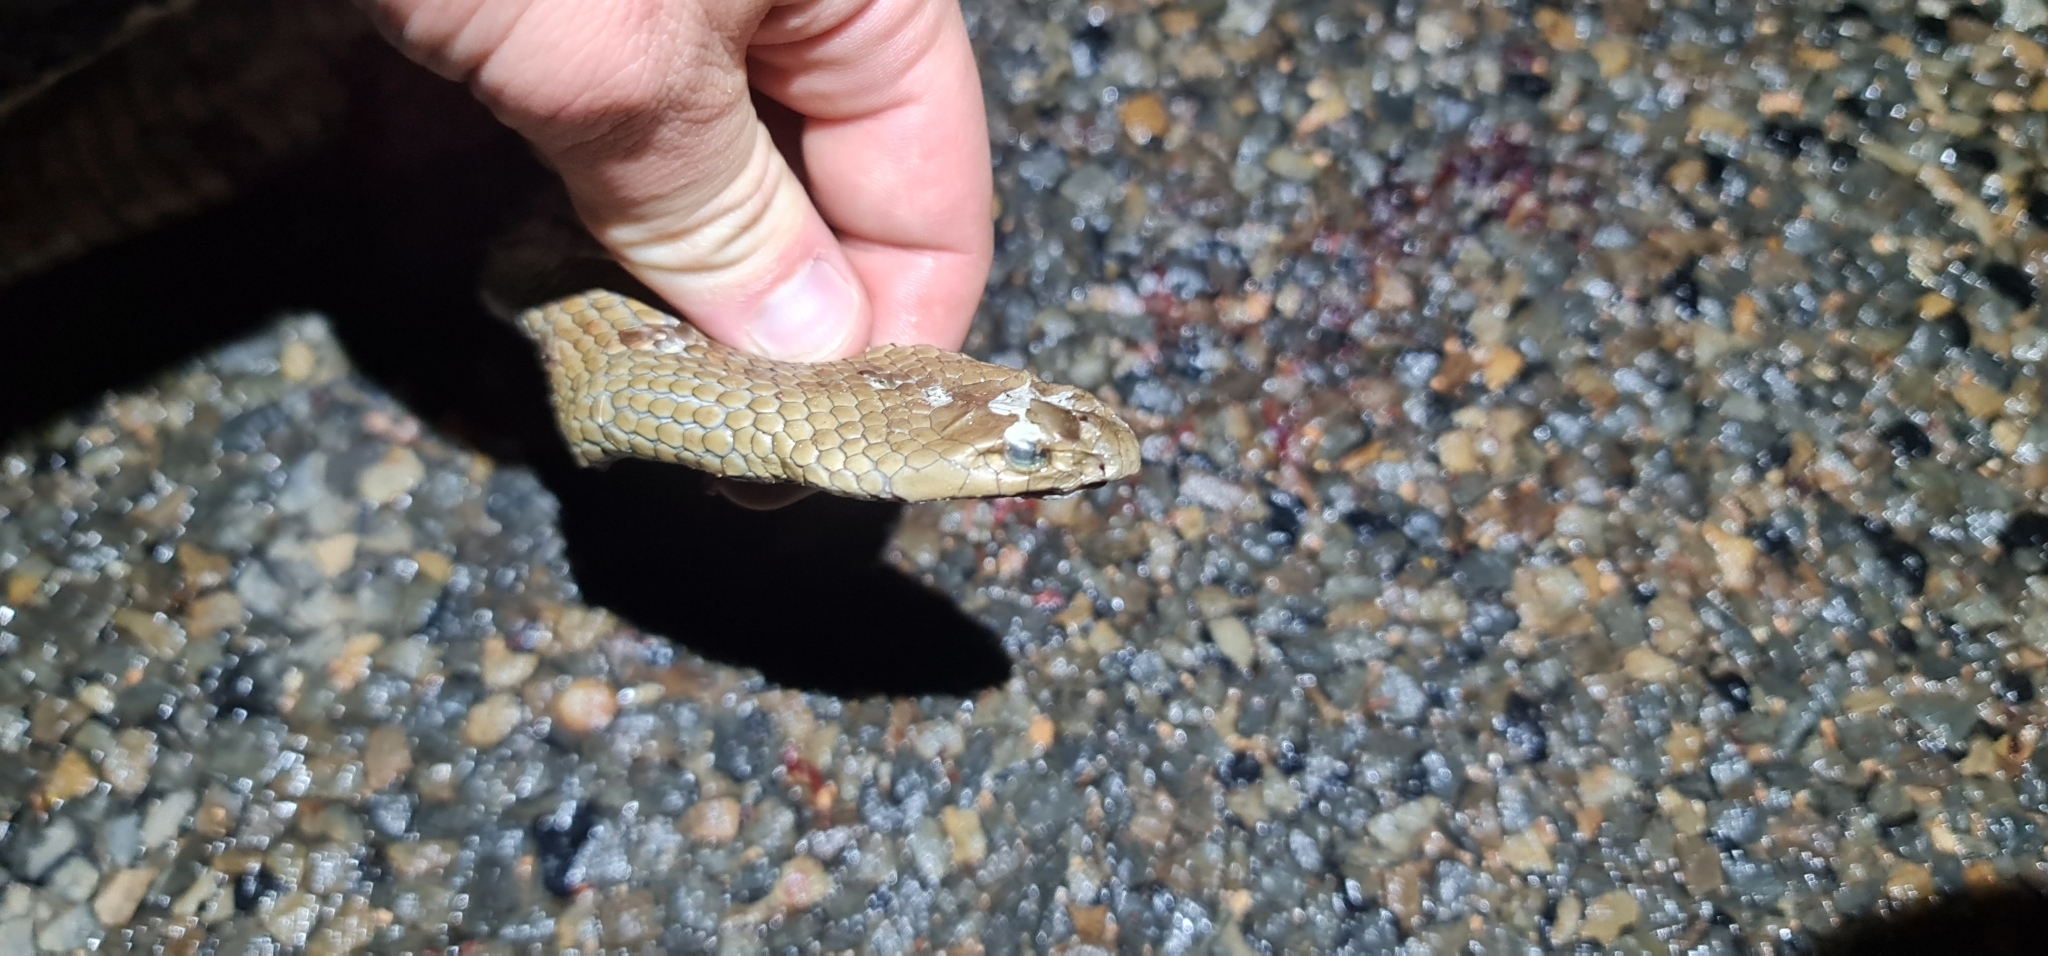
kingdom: Animalia
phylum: Chordata
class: Squamata
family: Elapidae
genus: Pseudonaja
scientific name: Pseudonaja textilis
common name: Eastern brown snake
